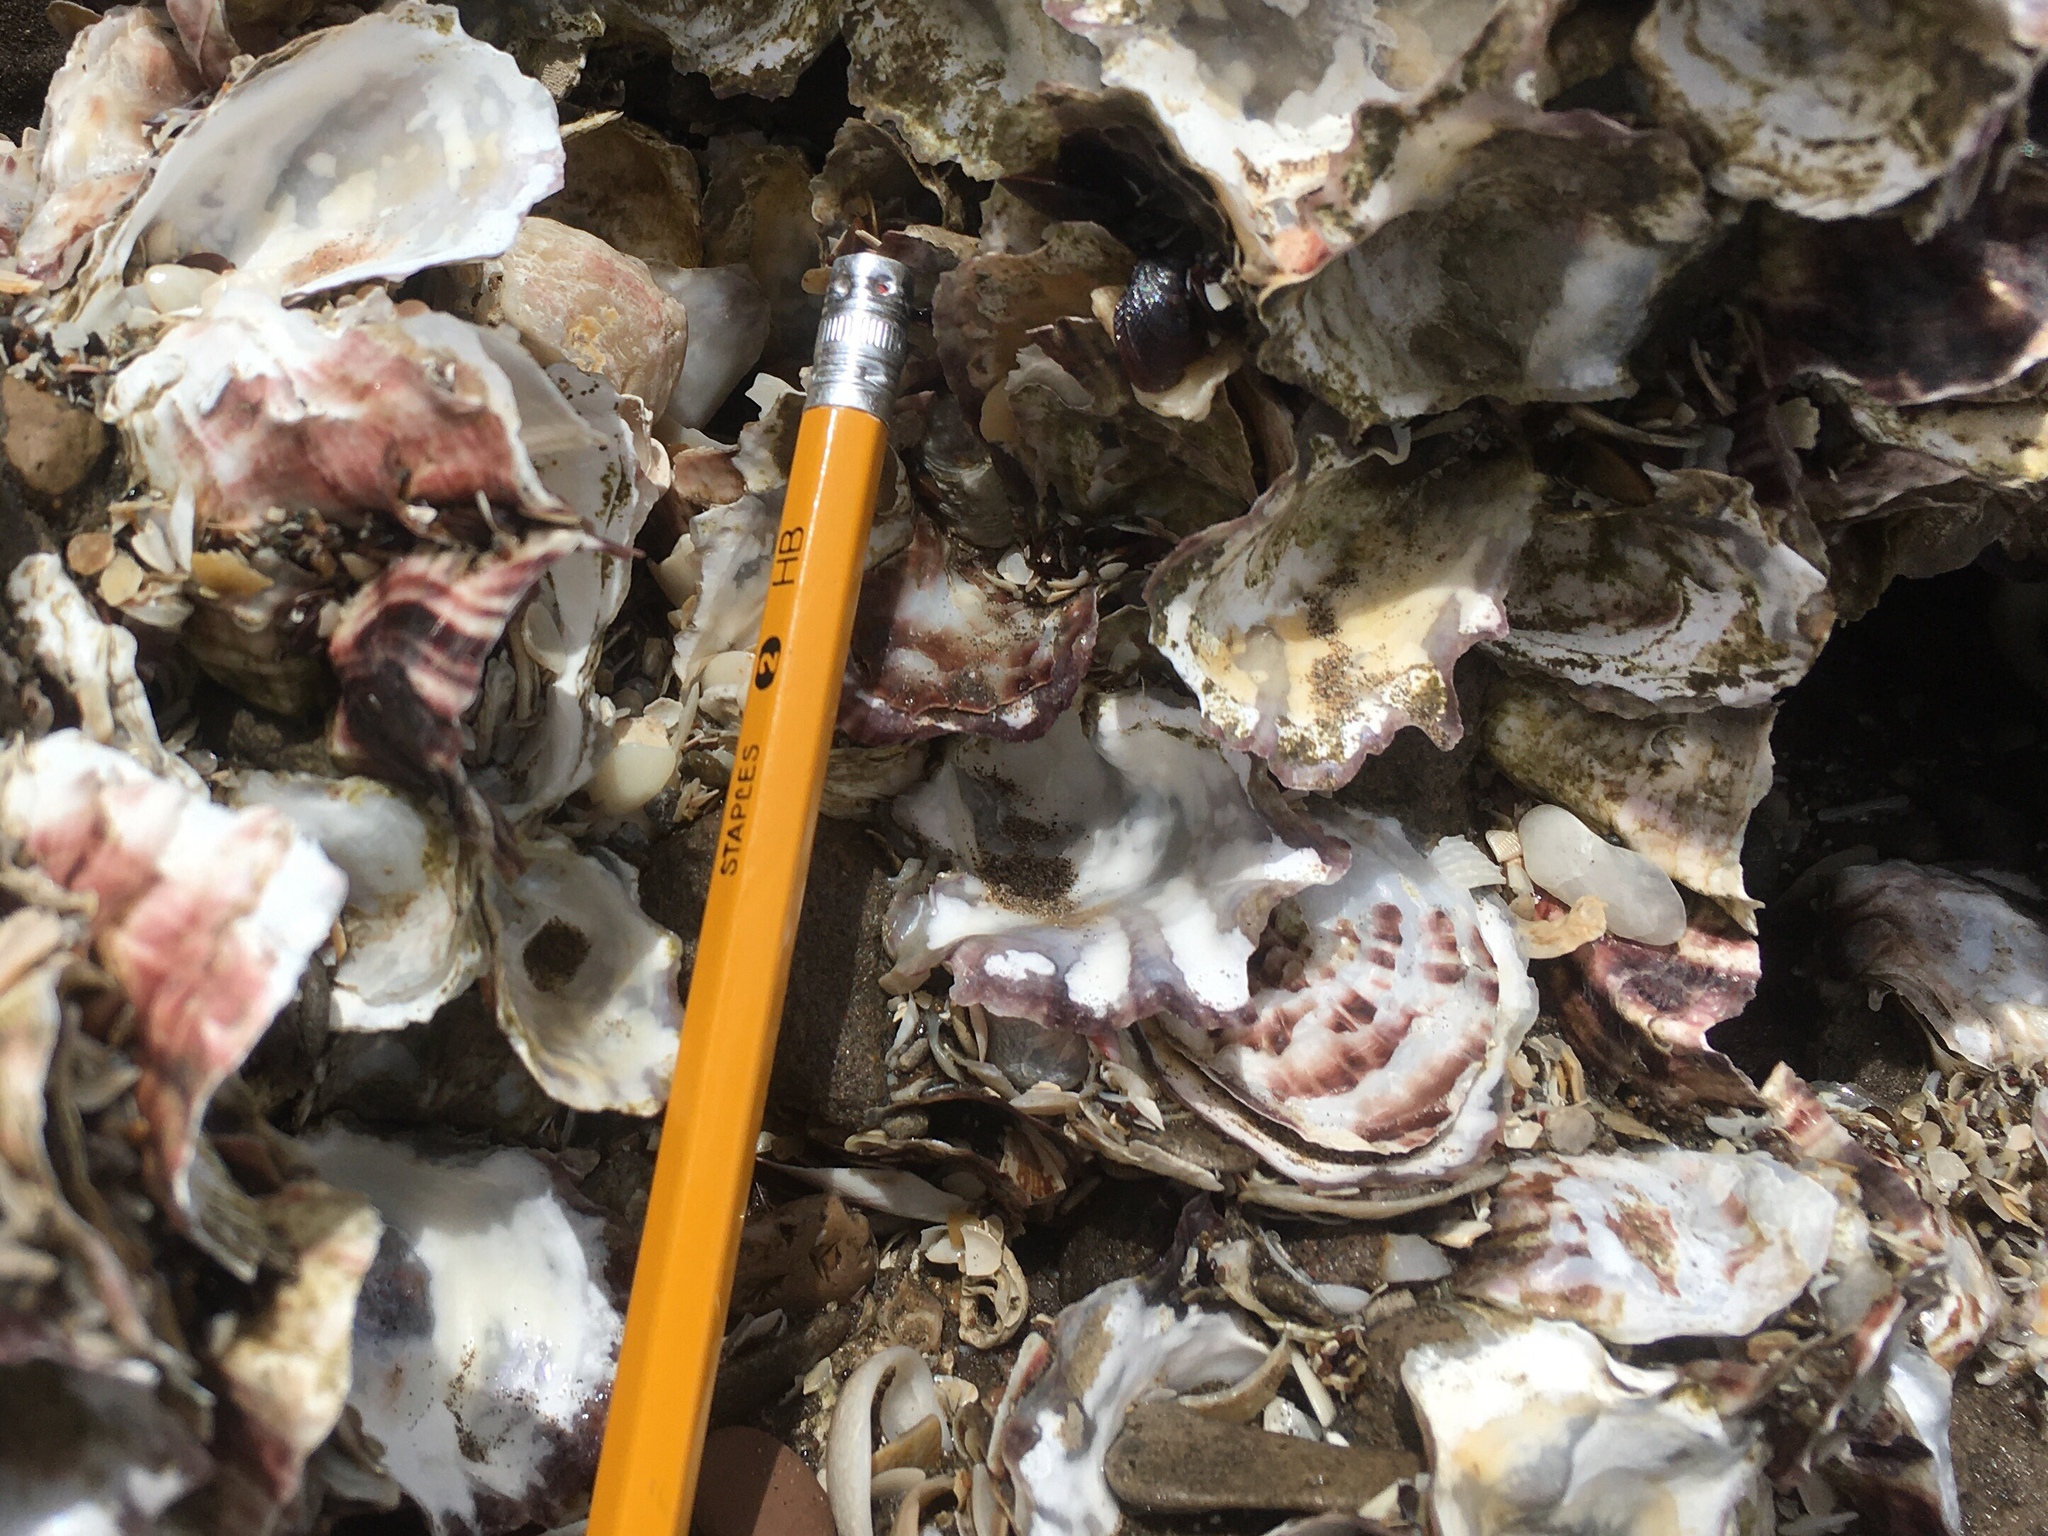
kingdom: Animalia
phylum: Mollusca
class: Bivalvia
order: Ostreida
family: Ostreidae
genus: Magallana
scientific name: Magallana gigas
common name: Pacific oyster
